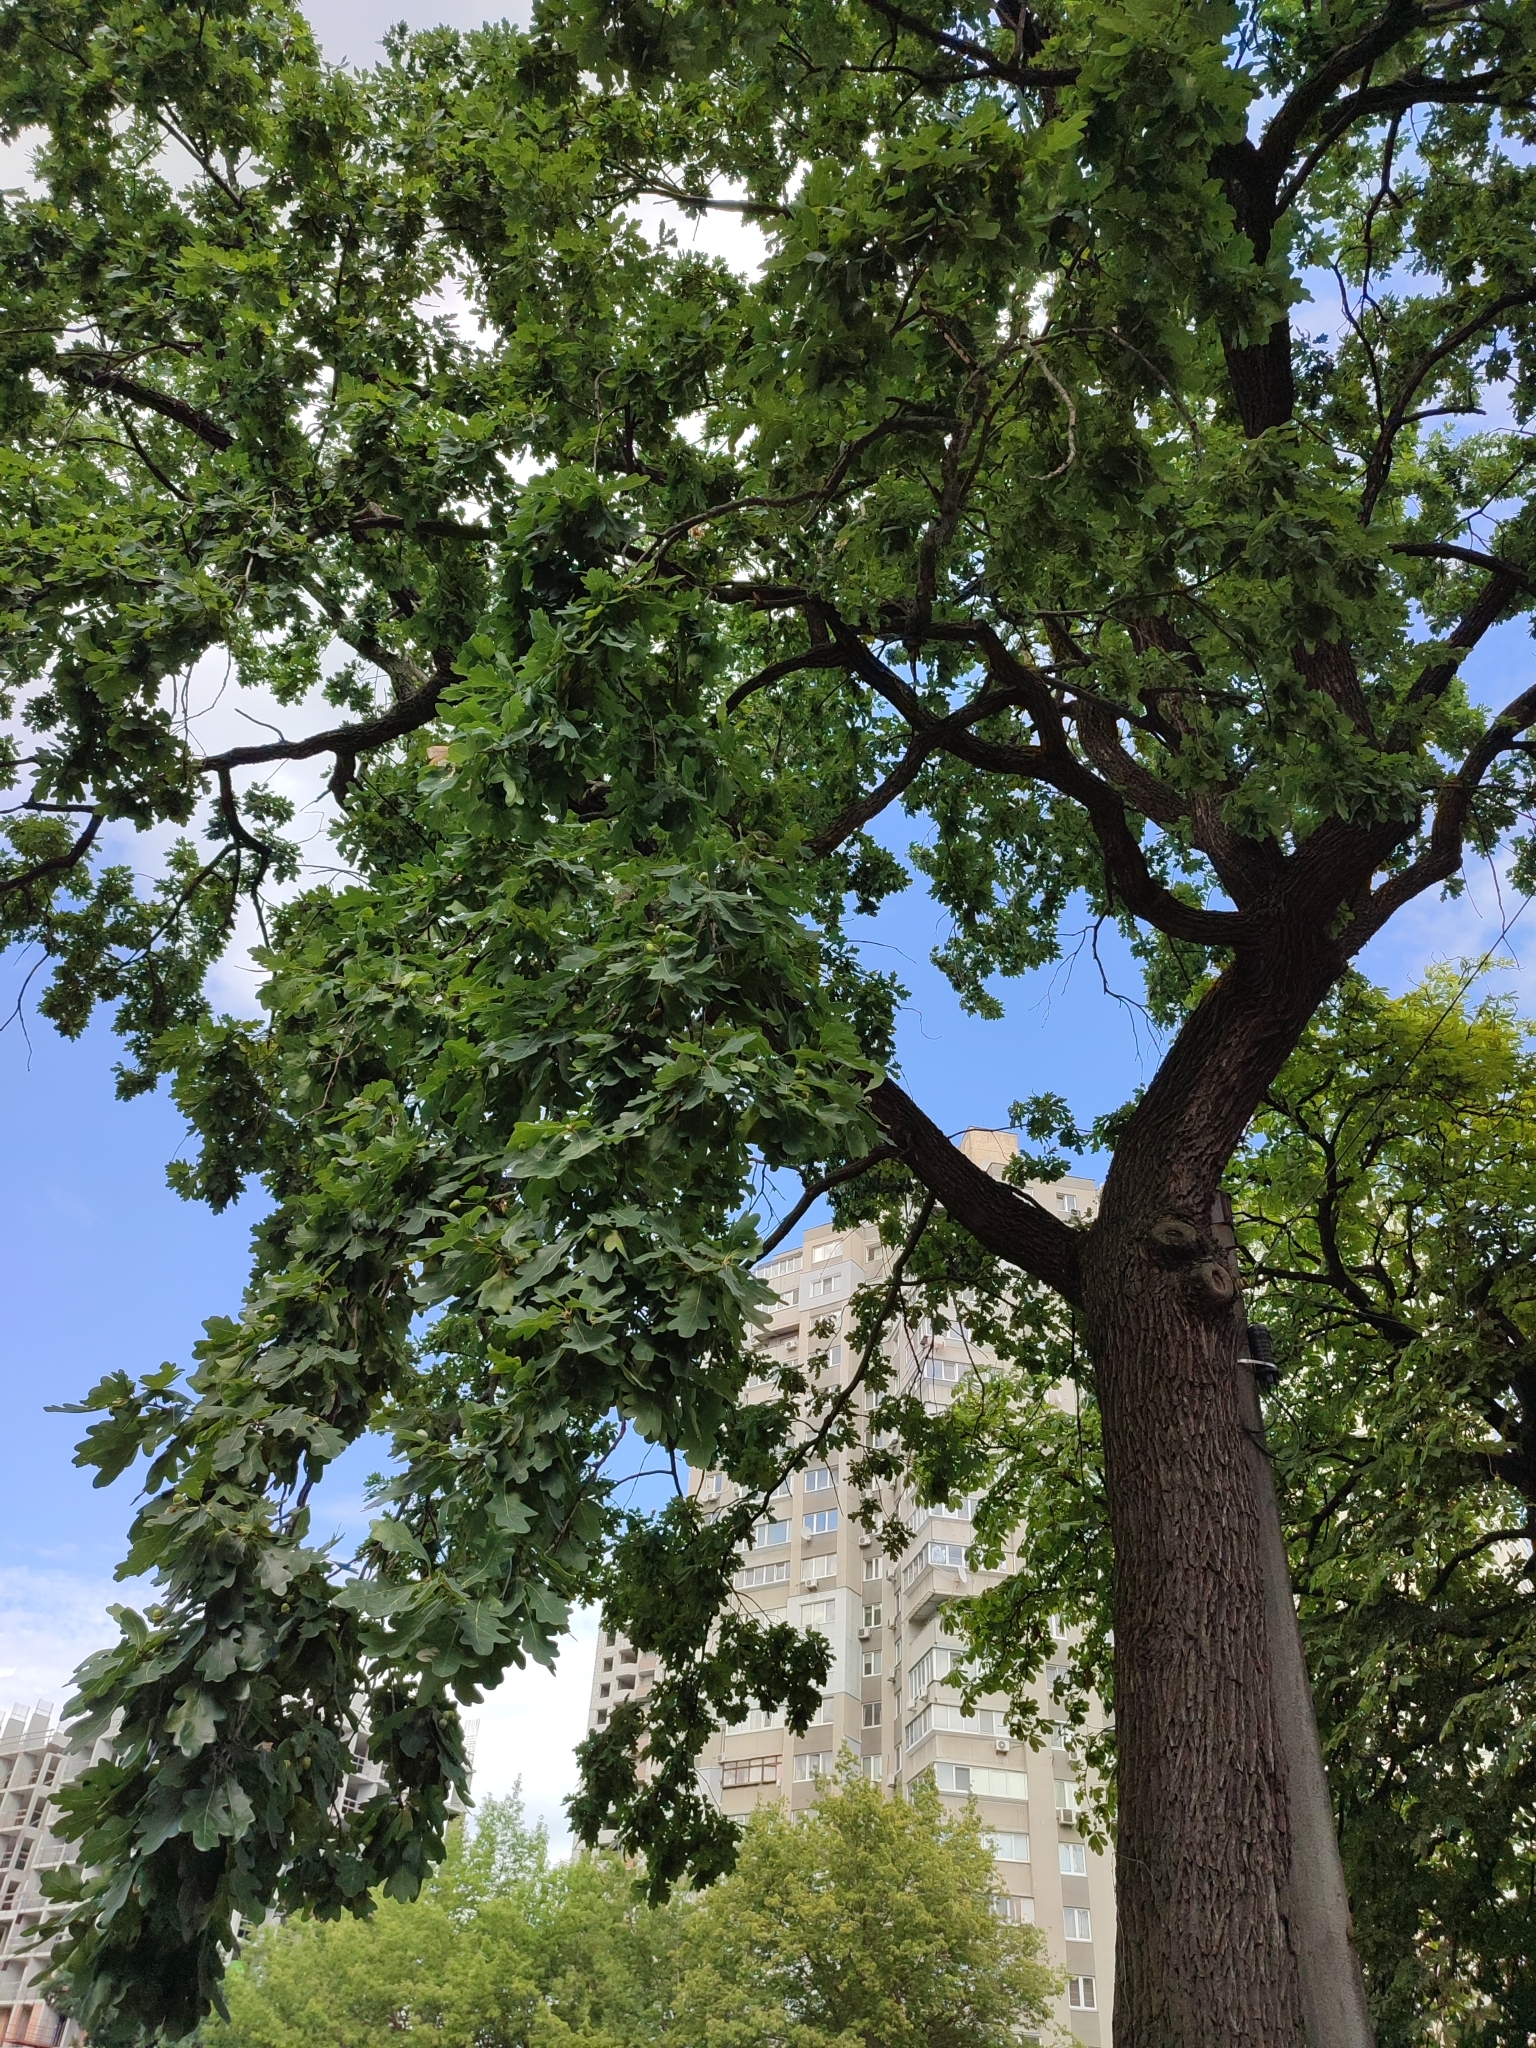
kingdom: Plantae
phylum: Tracheophyta
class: Magnoliopsida
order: Fagales
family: Fagaceae
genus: Quercus
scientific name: Quercus robur
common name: Pedunculate oak
